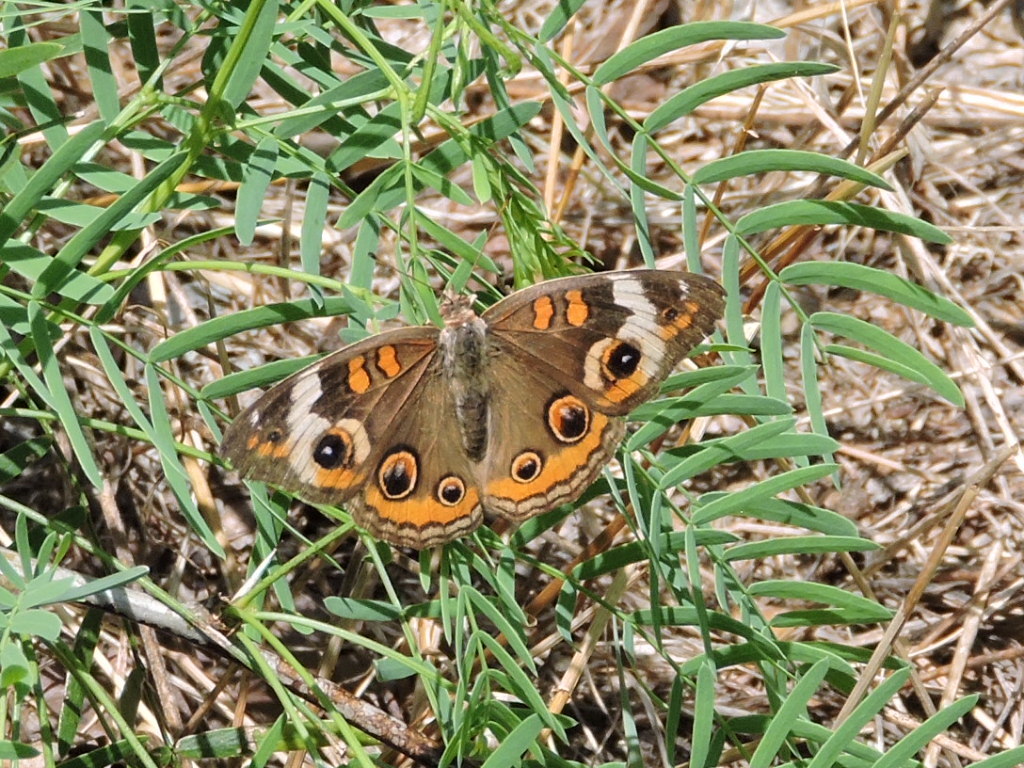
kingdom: Animalia
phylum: Arthropoda
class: Insecta
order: Lepidoptera
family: Nymphalidae
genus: Junonia
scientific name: Junonia coenia
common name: Common buckeye
